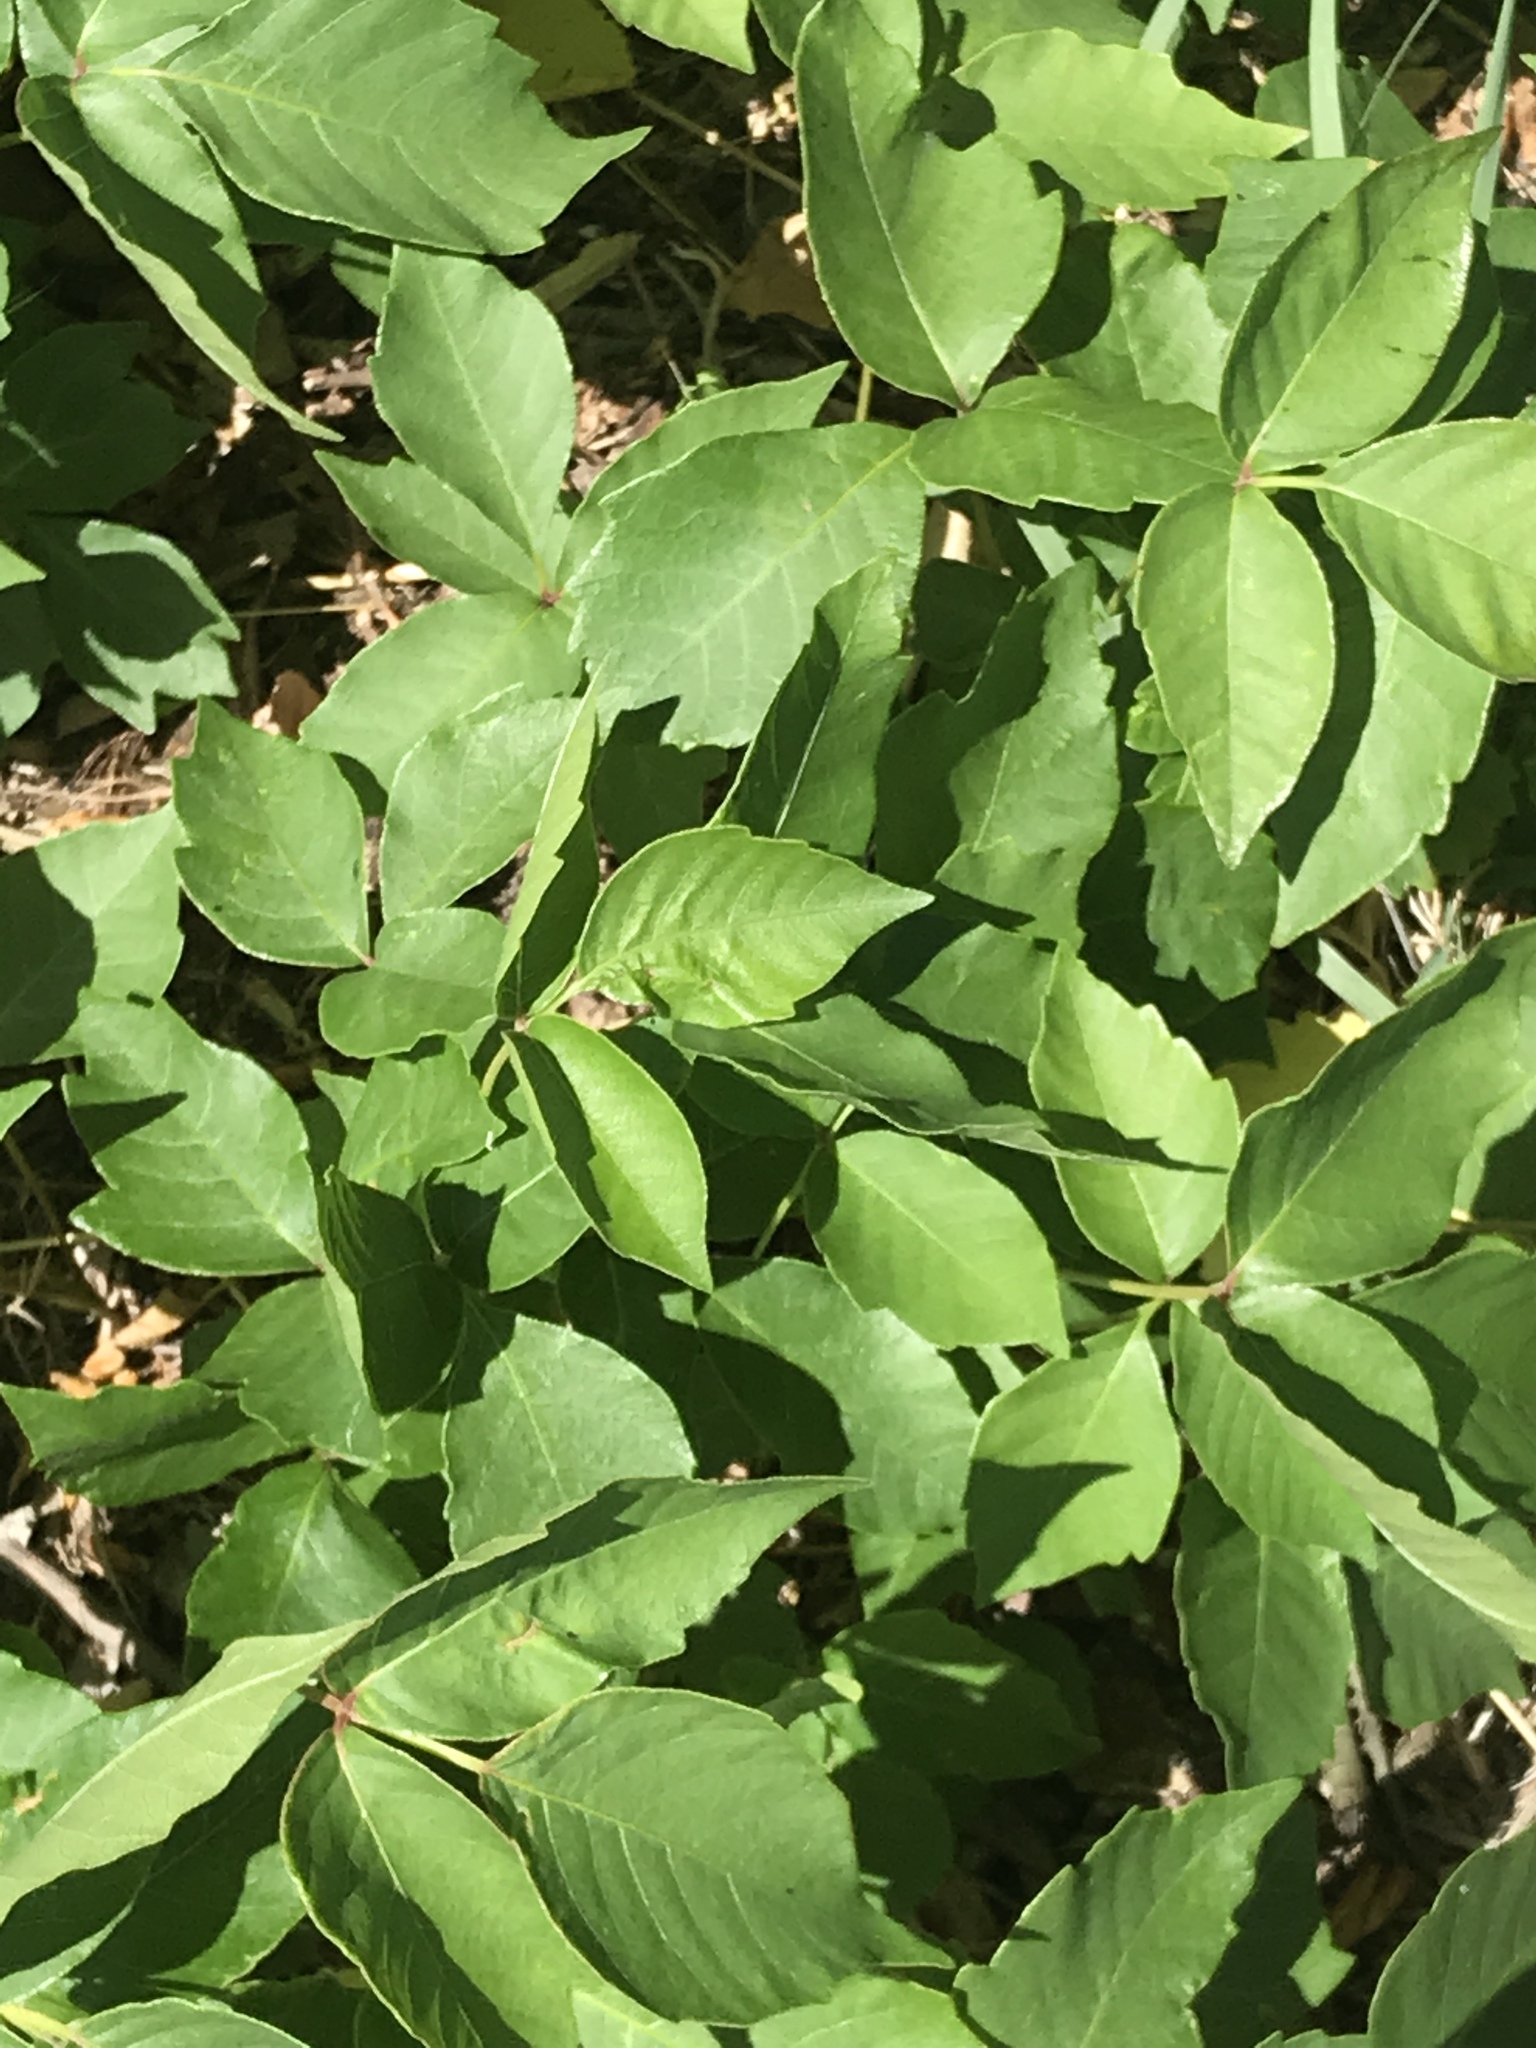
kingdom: Plantae
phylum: Tracheophyta
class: Magnoliopsida
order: Sapindales
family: Anacardiaceae
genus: Toxicodendron
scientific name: Toxicodendron radicans
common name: Poison ivy
